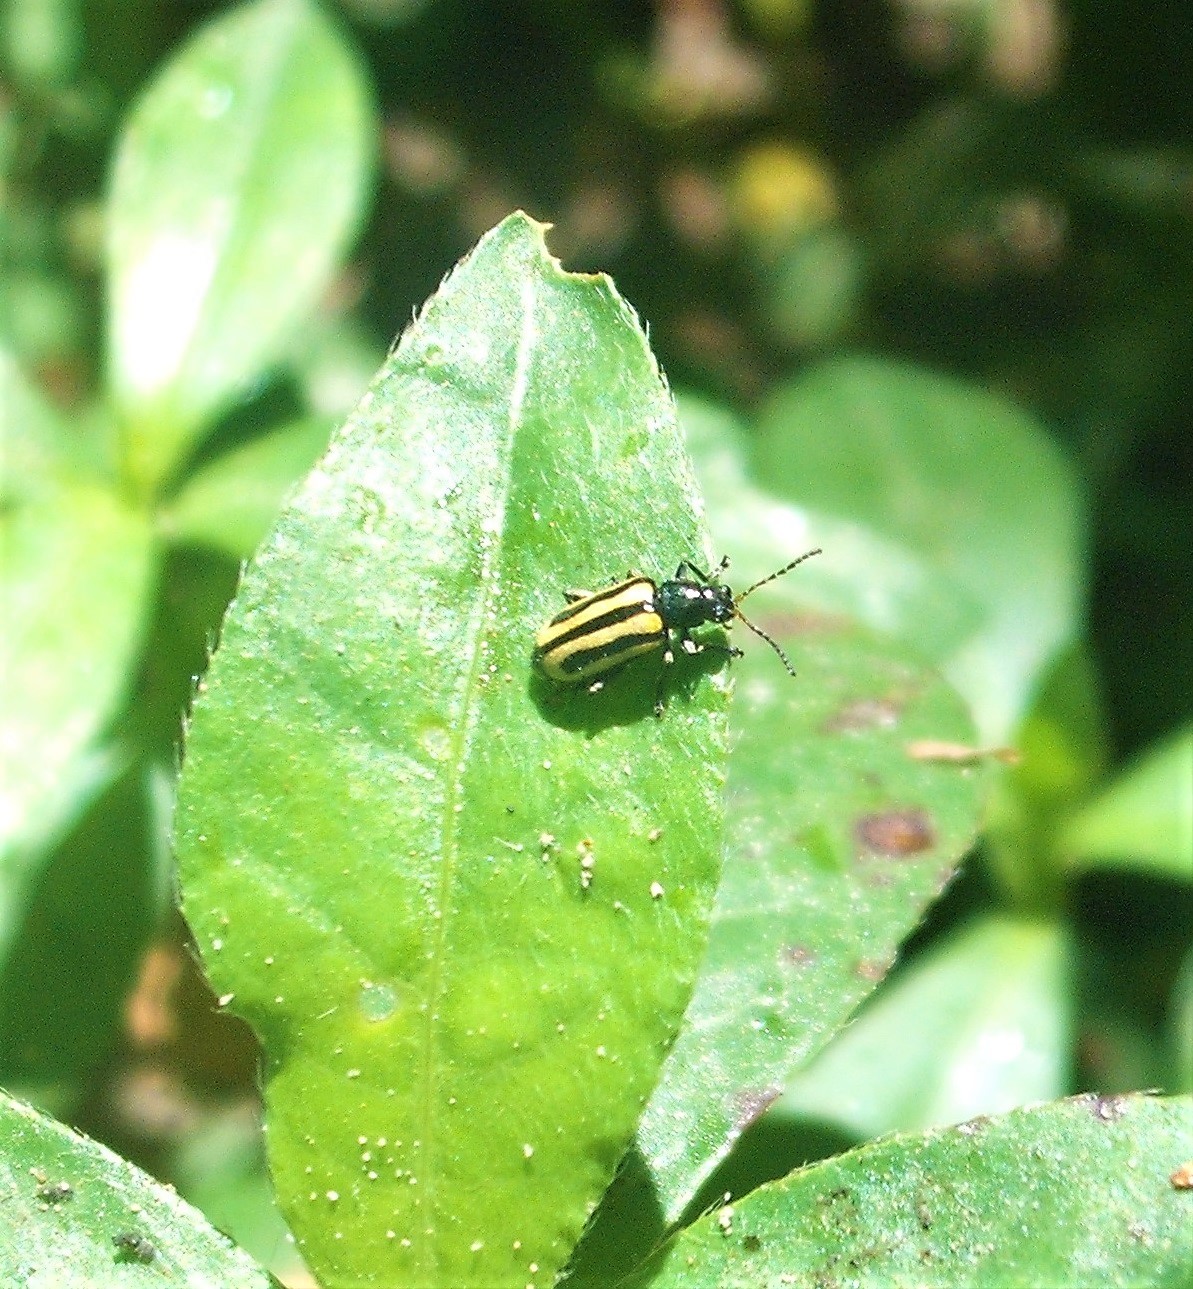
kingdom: Animalia
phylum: Arthropoda
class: Insecta
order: Coleoptera
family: Chrysomelidae
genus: Agasicles
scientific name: Agasicles hygrophila
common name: Alligatorweed flea beetle
